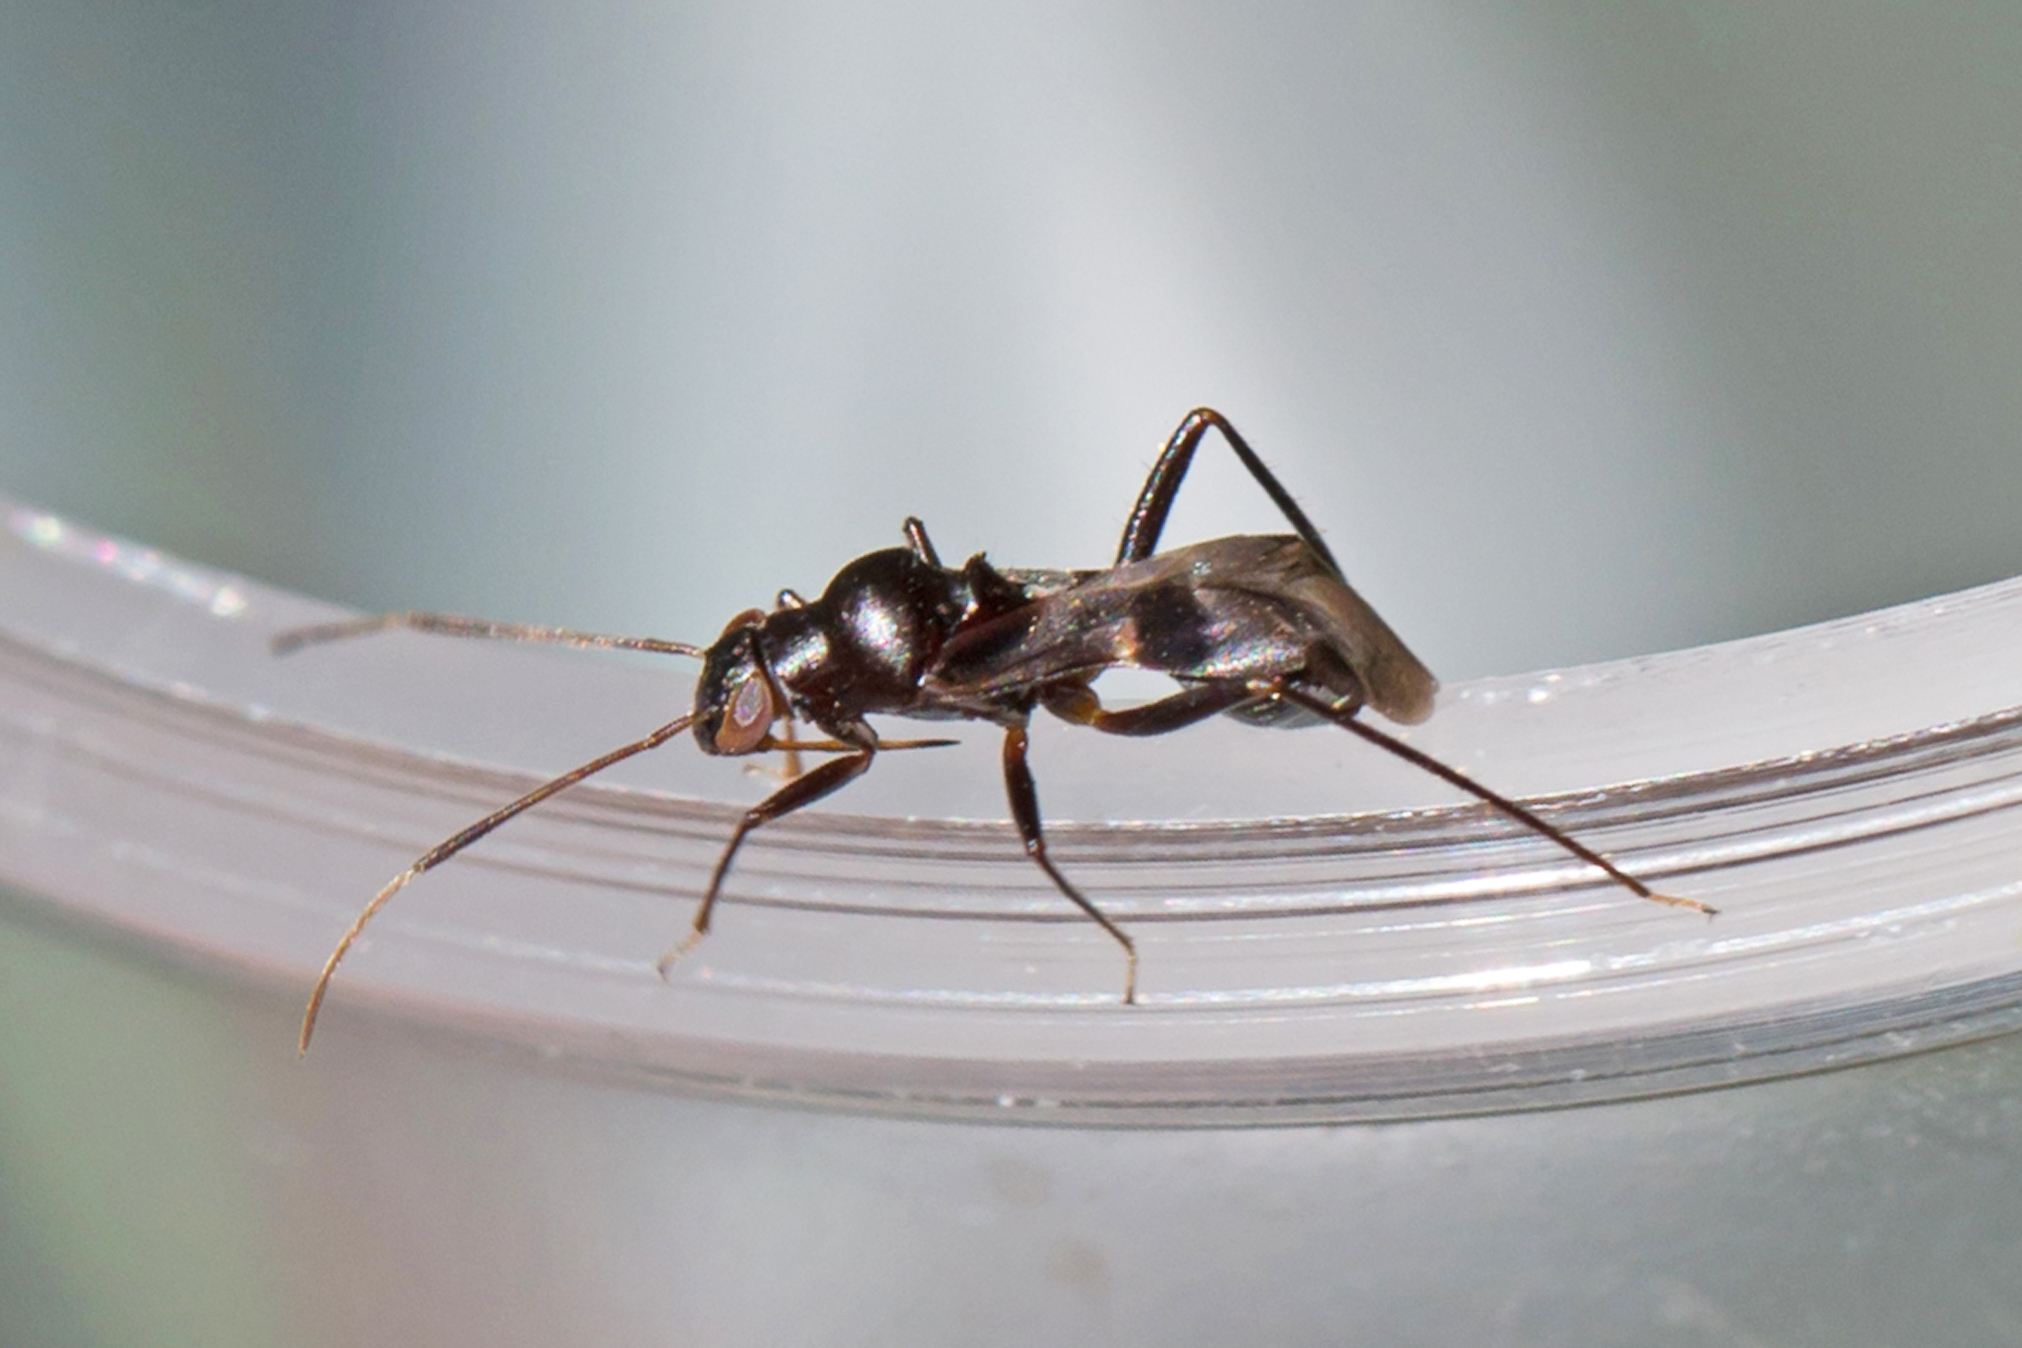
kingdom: Animalia
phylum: Arthropoda
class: Insecta
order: Hemiptera
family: Miridae
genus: Barberiella
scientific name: Barberiella formicoides
